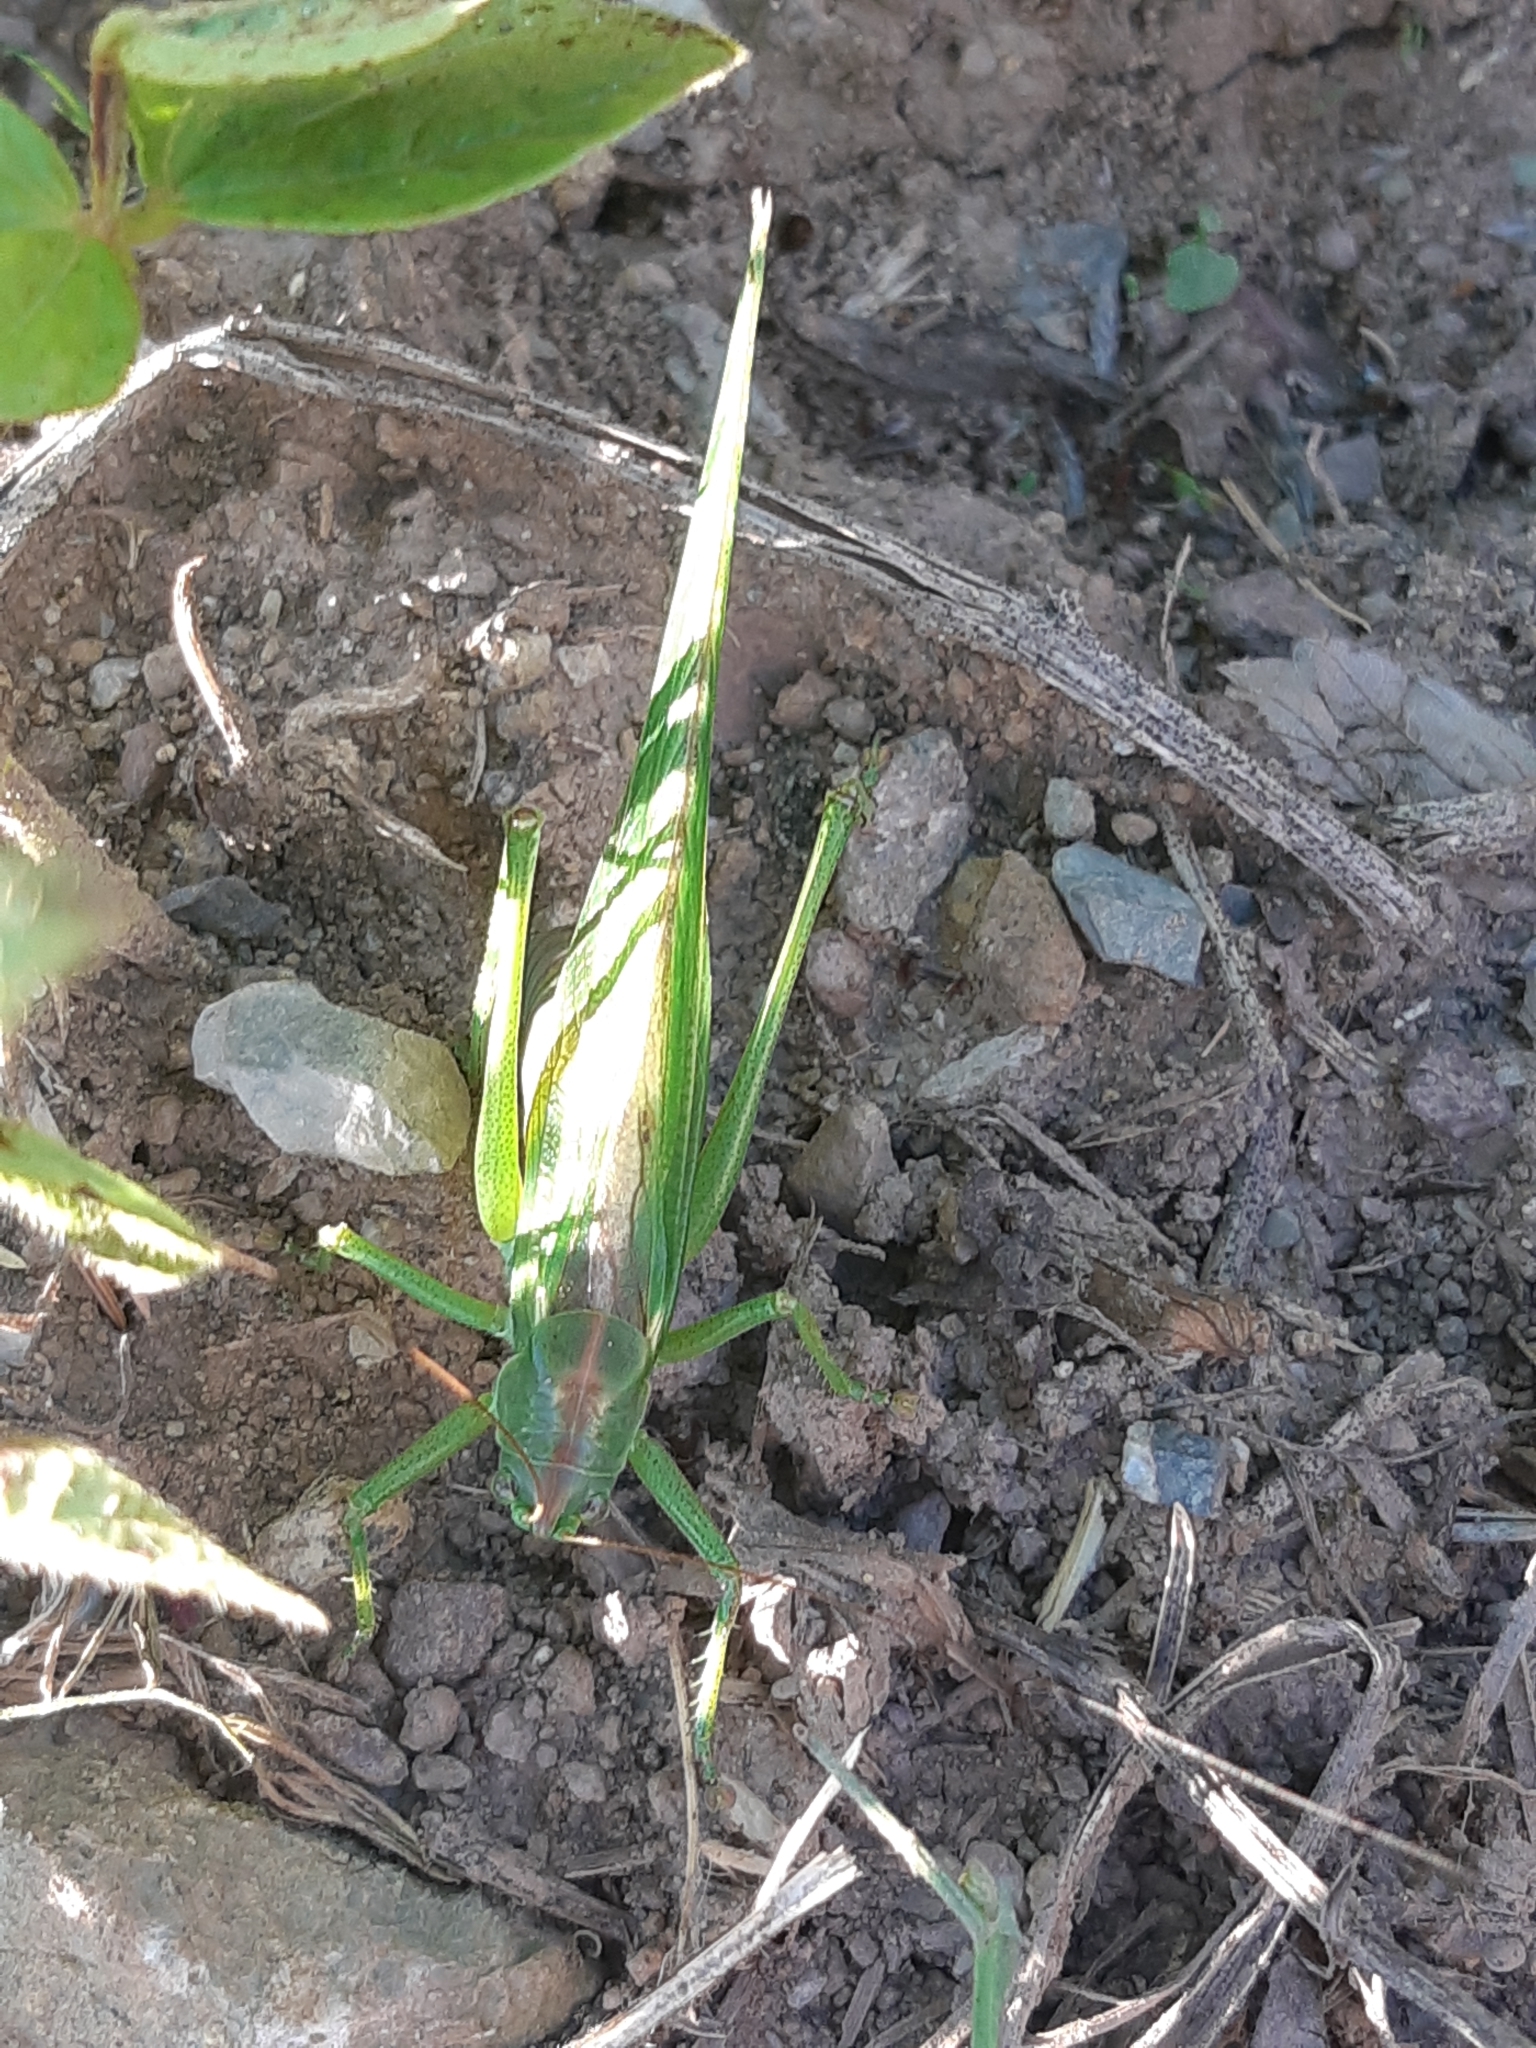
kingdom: Animalia
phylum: Arthropoda
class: Insecta
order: Orthoptera
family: Tettigoniidae
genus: Tettigonia
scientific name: Tettigonia viridissima
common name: Great green bush-cricket
